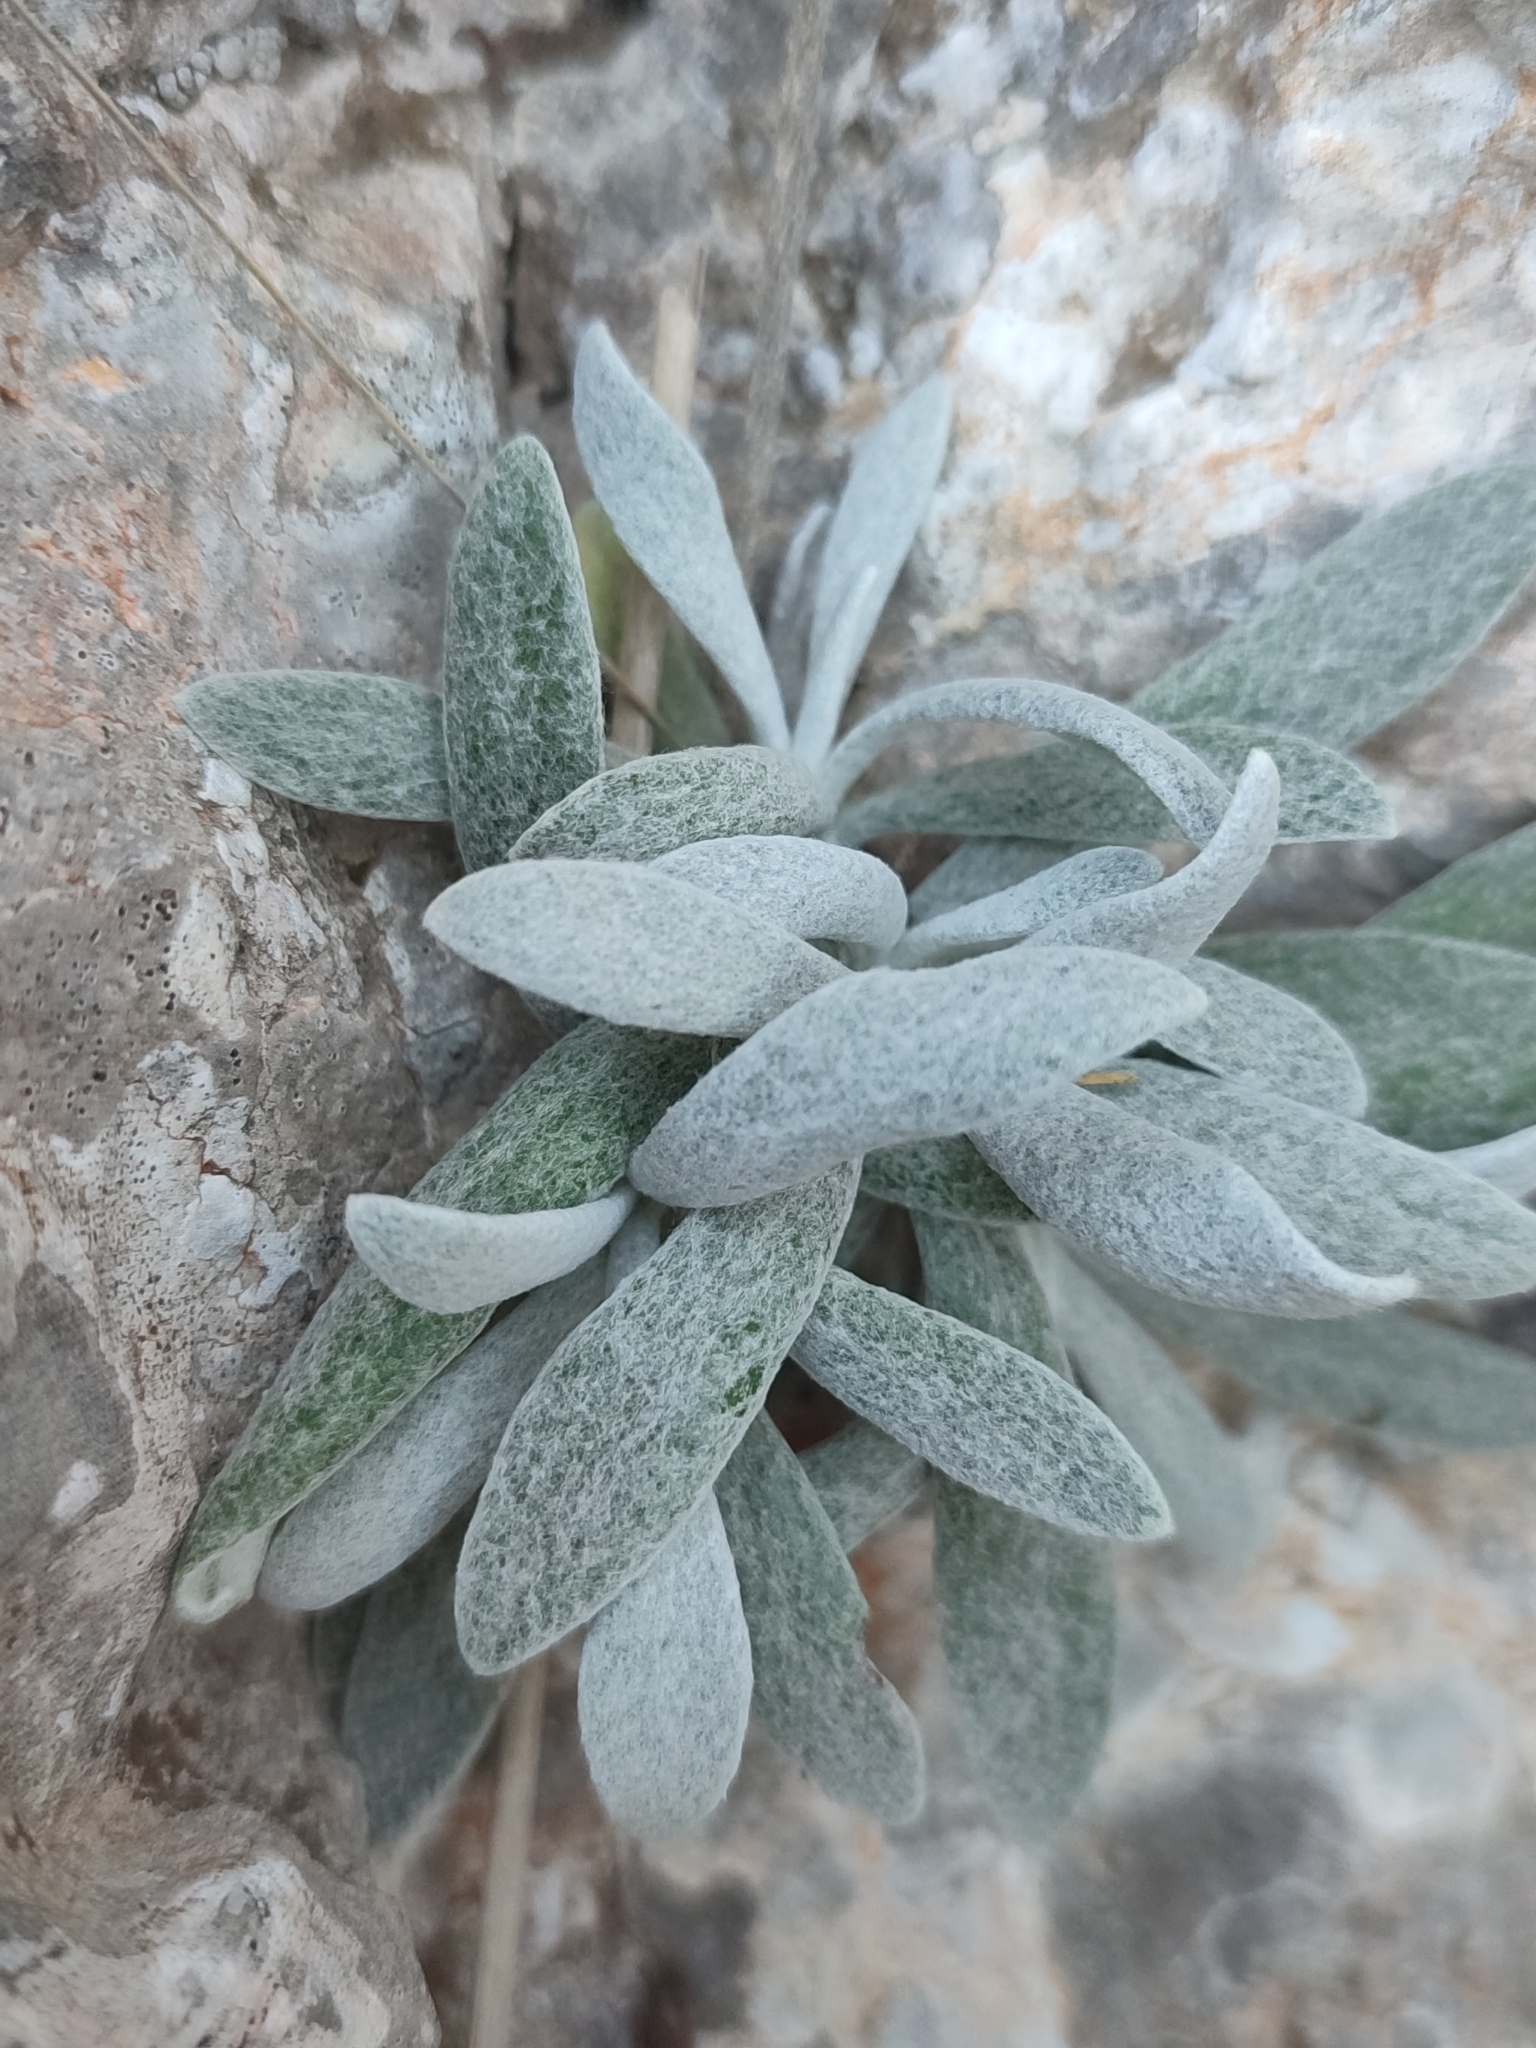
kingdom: Plantae
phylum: Tracheophyta
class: Magnoliopsida
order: Asterales
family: Asteraceae
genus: Helichrysum
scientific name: Helichrysum crassifolium
